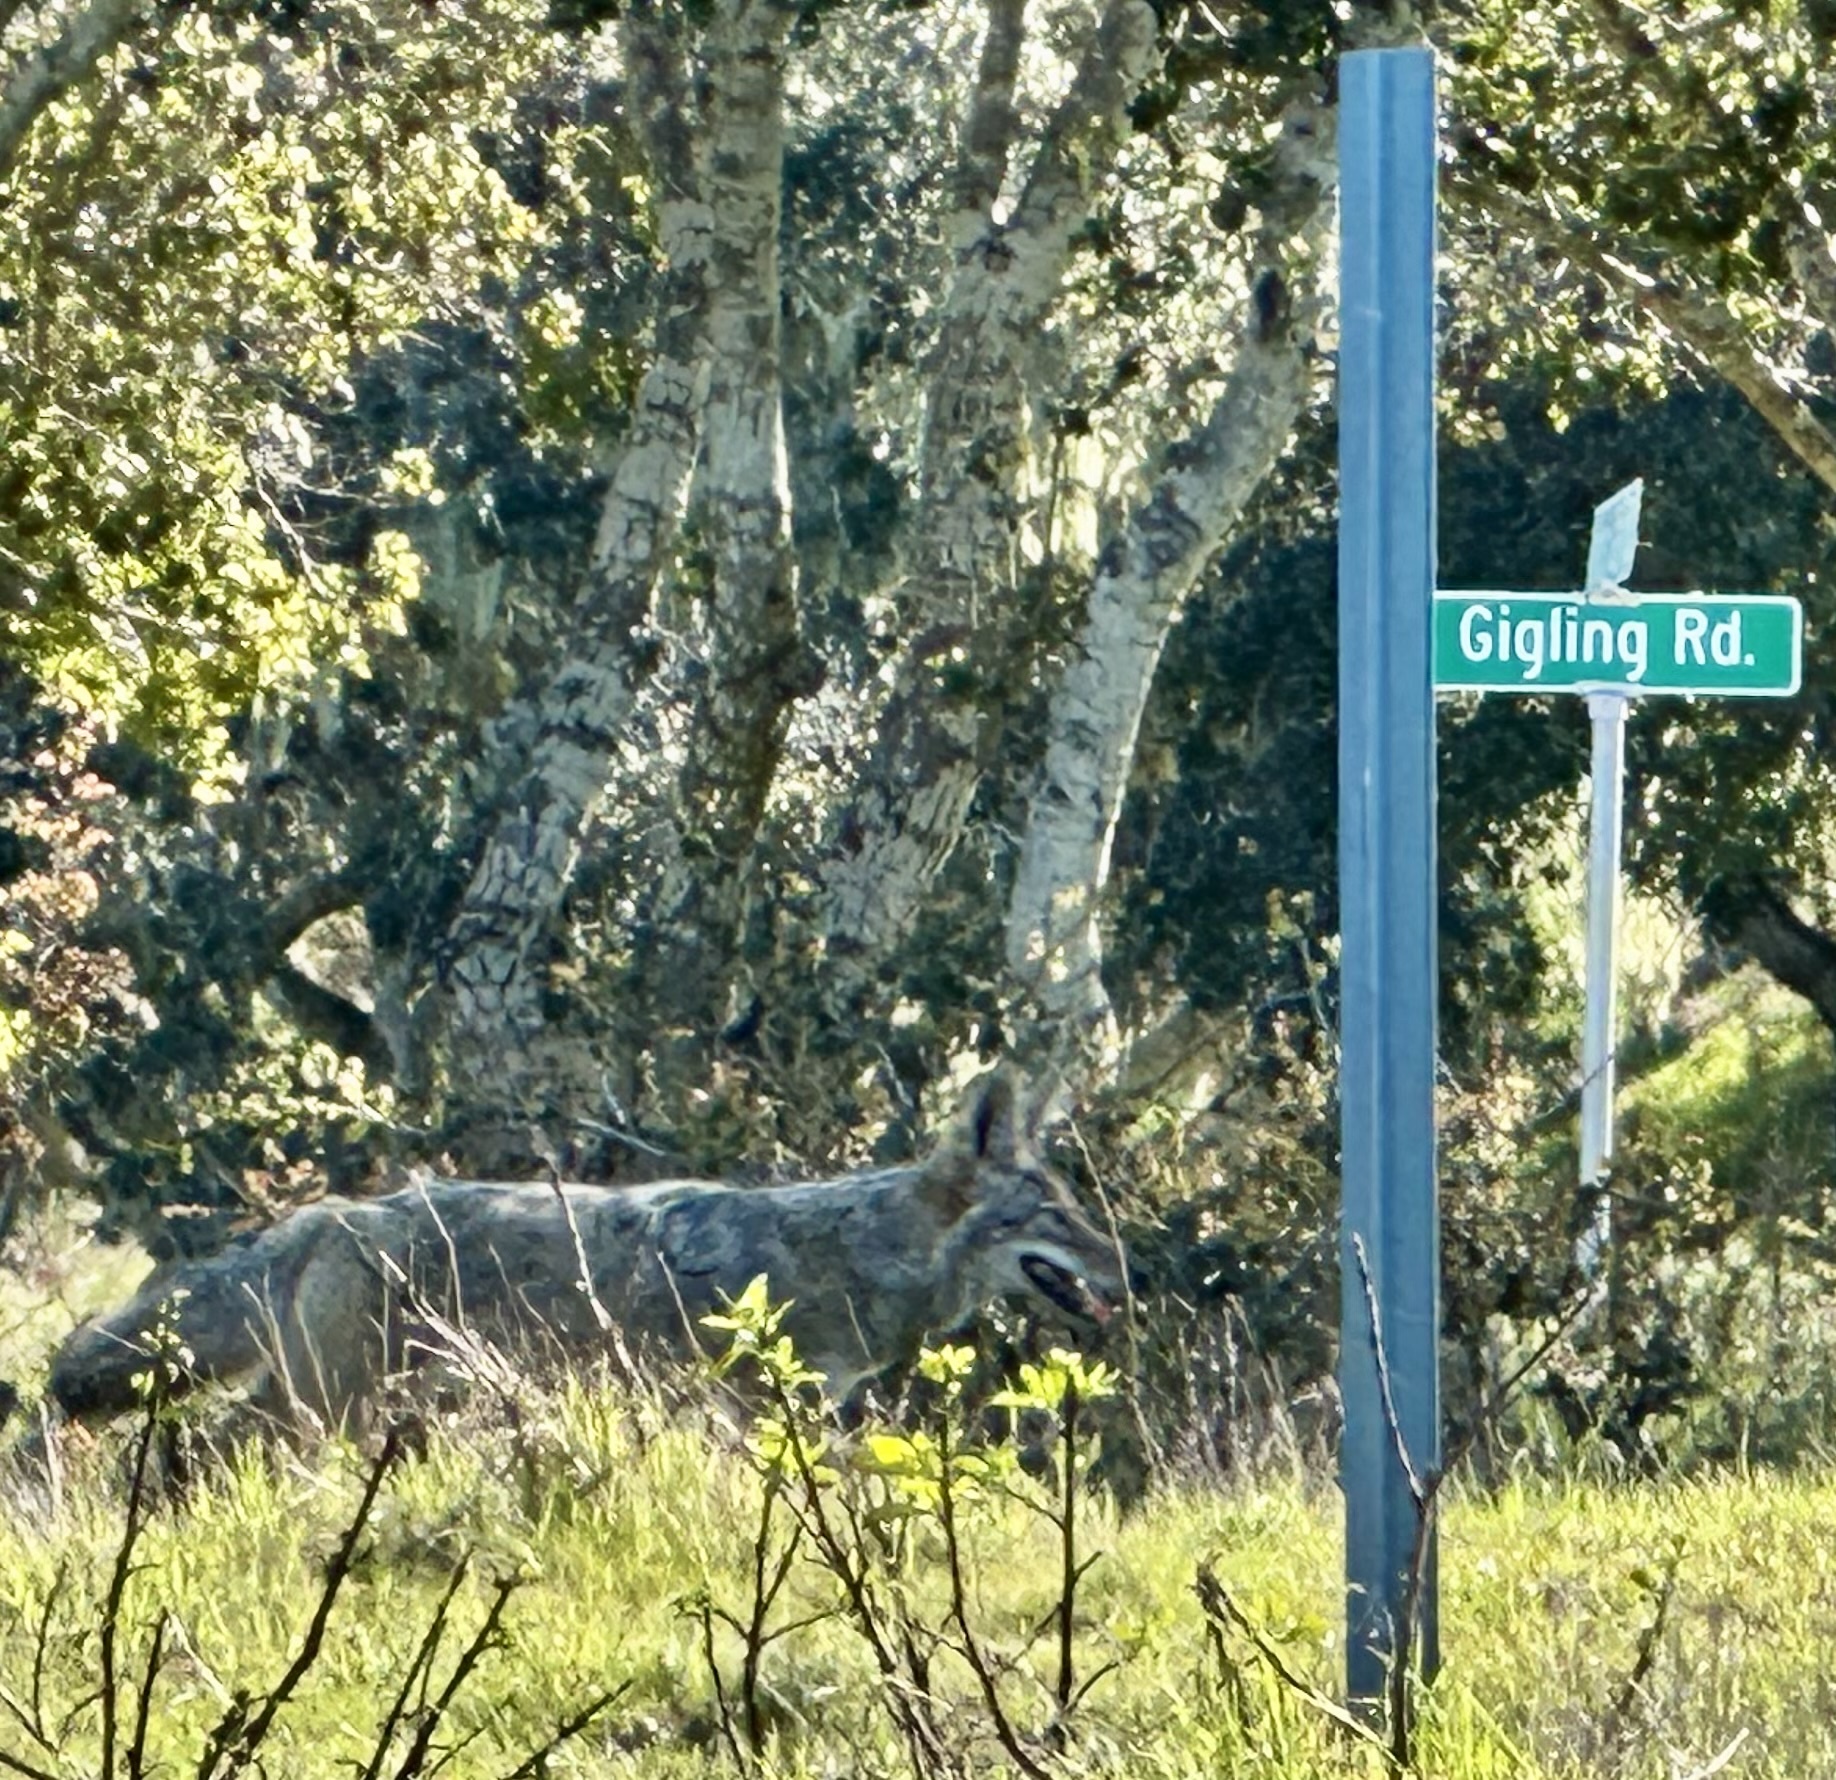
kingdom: Animalia
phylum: Chordata
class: Mammalia
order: Carnivora
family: Canidae
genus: Canis
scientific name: Canis latrans
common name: Coyote
